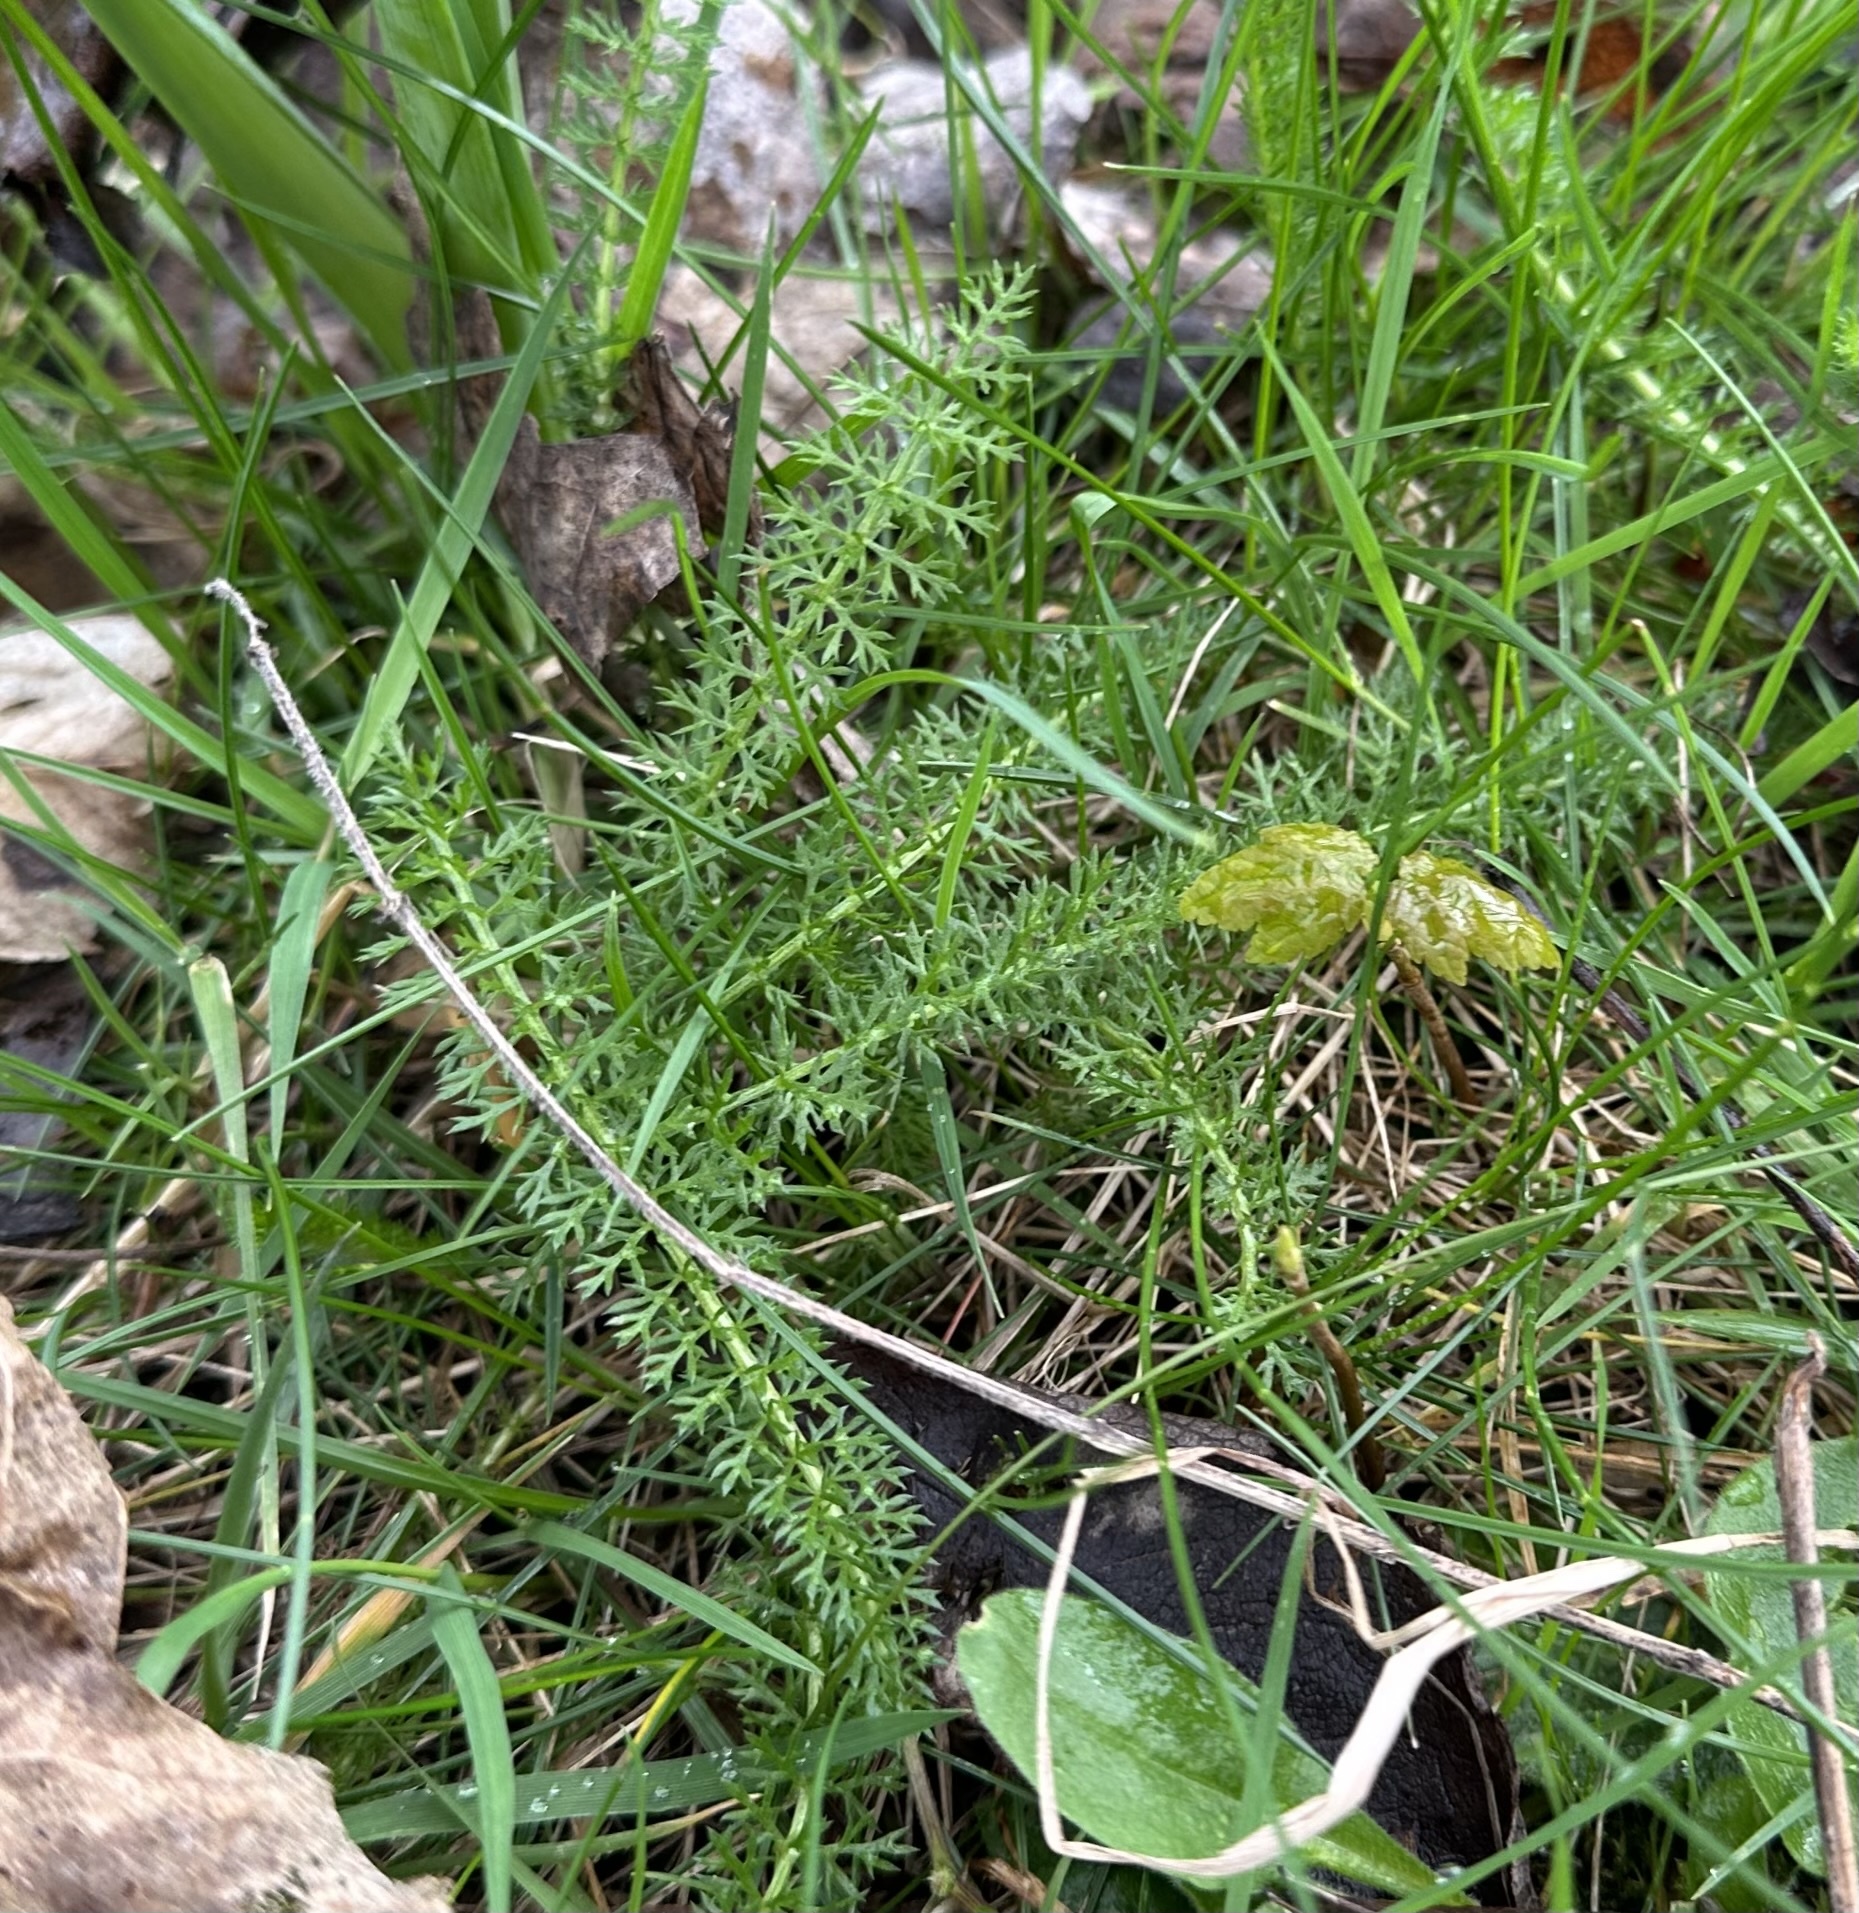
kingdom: Plantae
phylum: Tracheophyta
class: Magnoliopsida
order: Asterales
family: Asteraceae
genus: Achillea
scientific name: Achillea millefolium
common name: Yarrow
